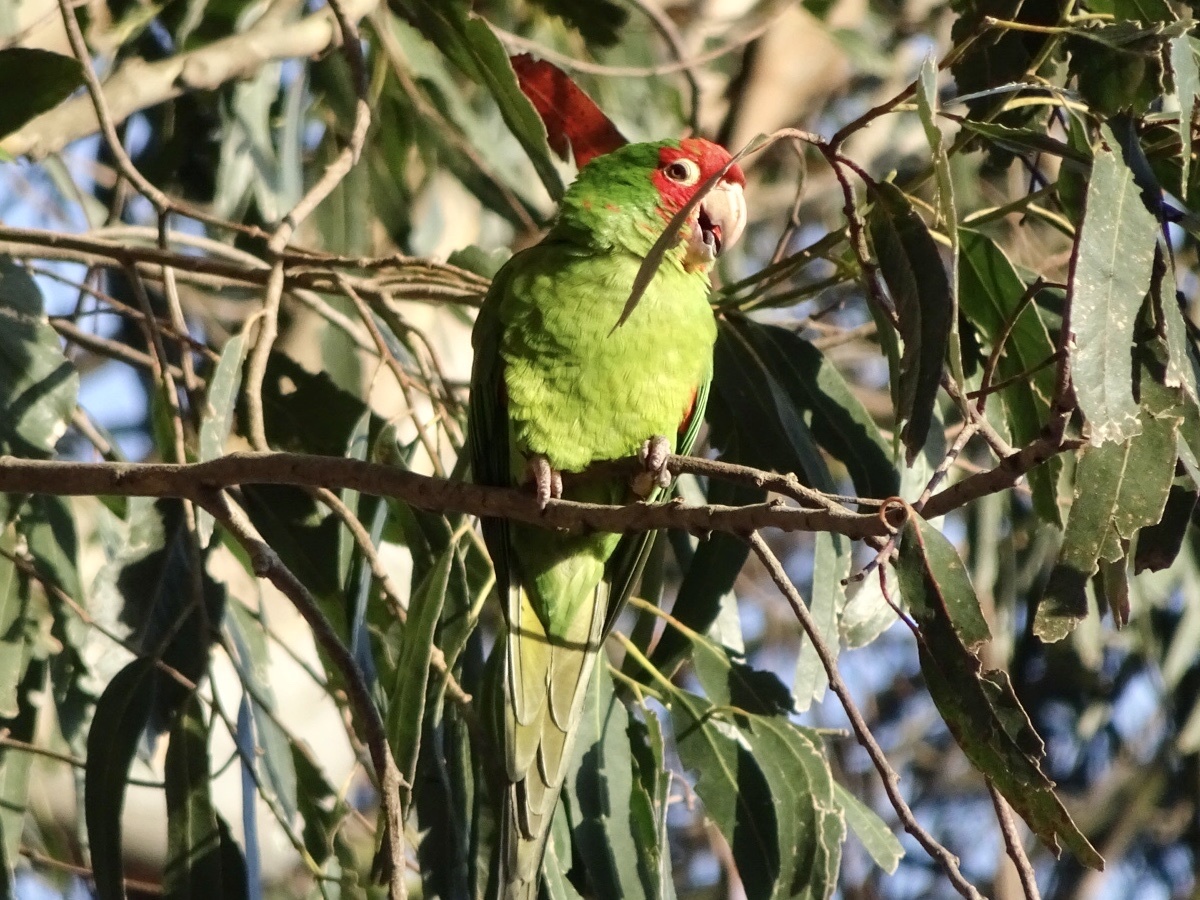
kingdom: Animalia
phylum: Chordata
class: Aves
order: Psittaciformes
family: Psittacidae
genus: Aratinga
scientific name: Aratinga erythrogenys
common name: Red-masked parakeet
